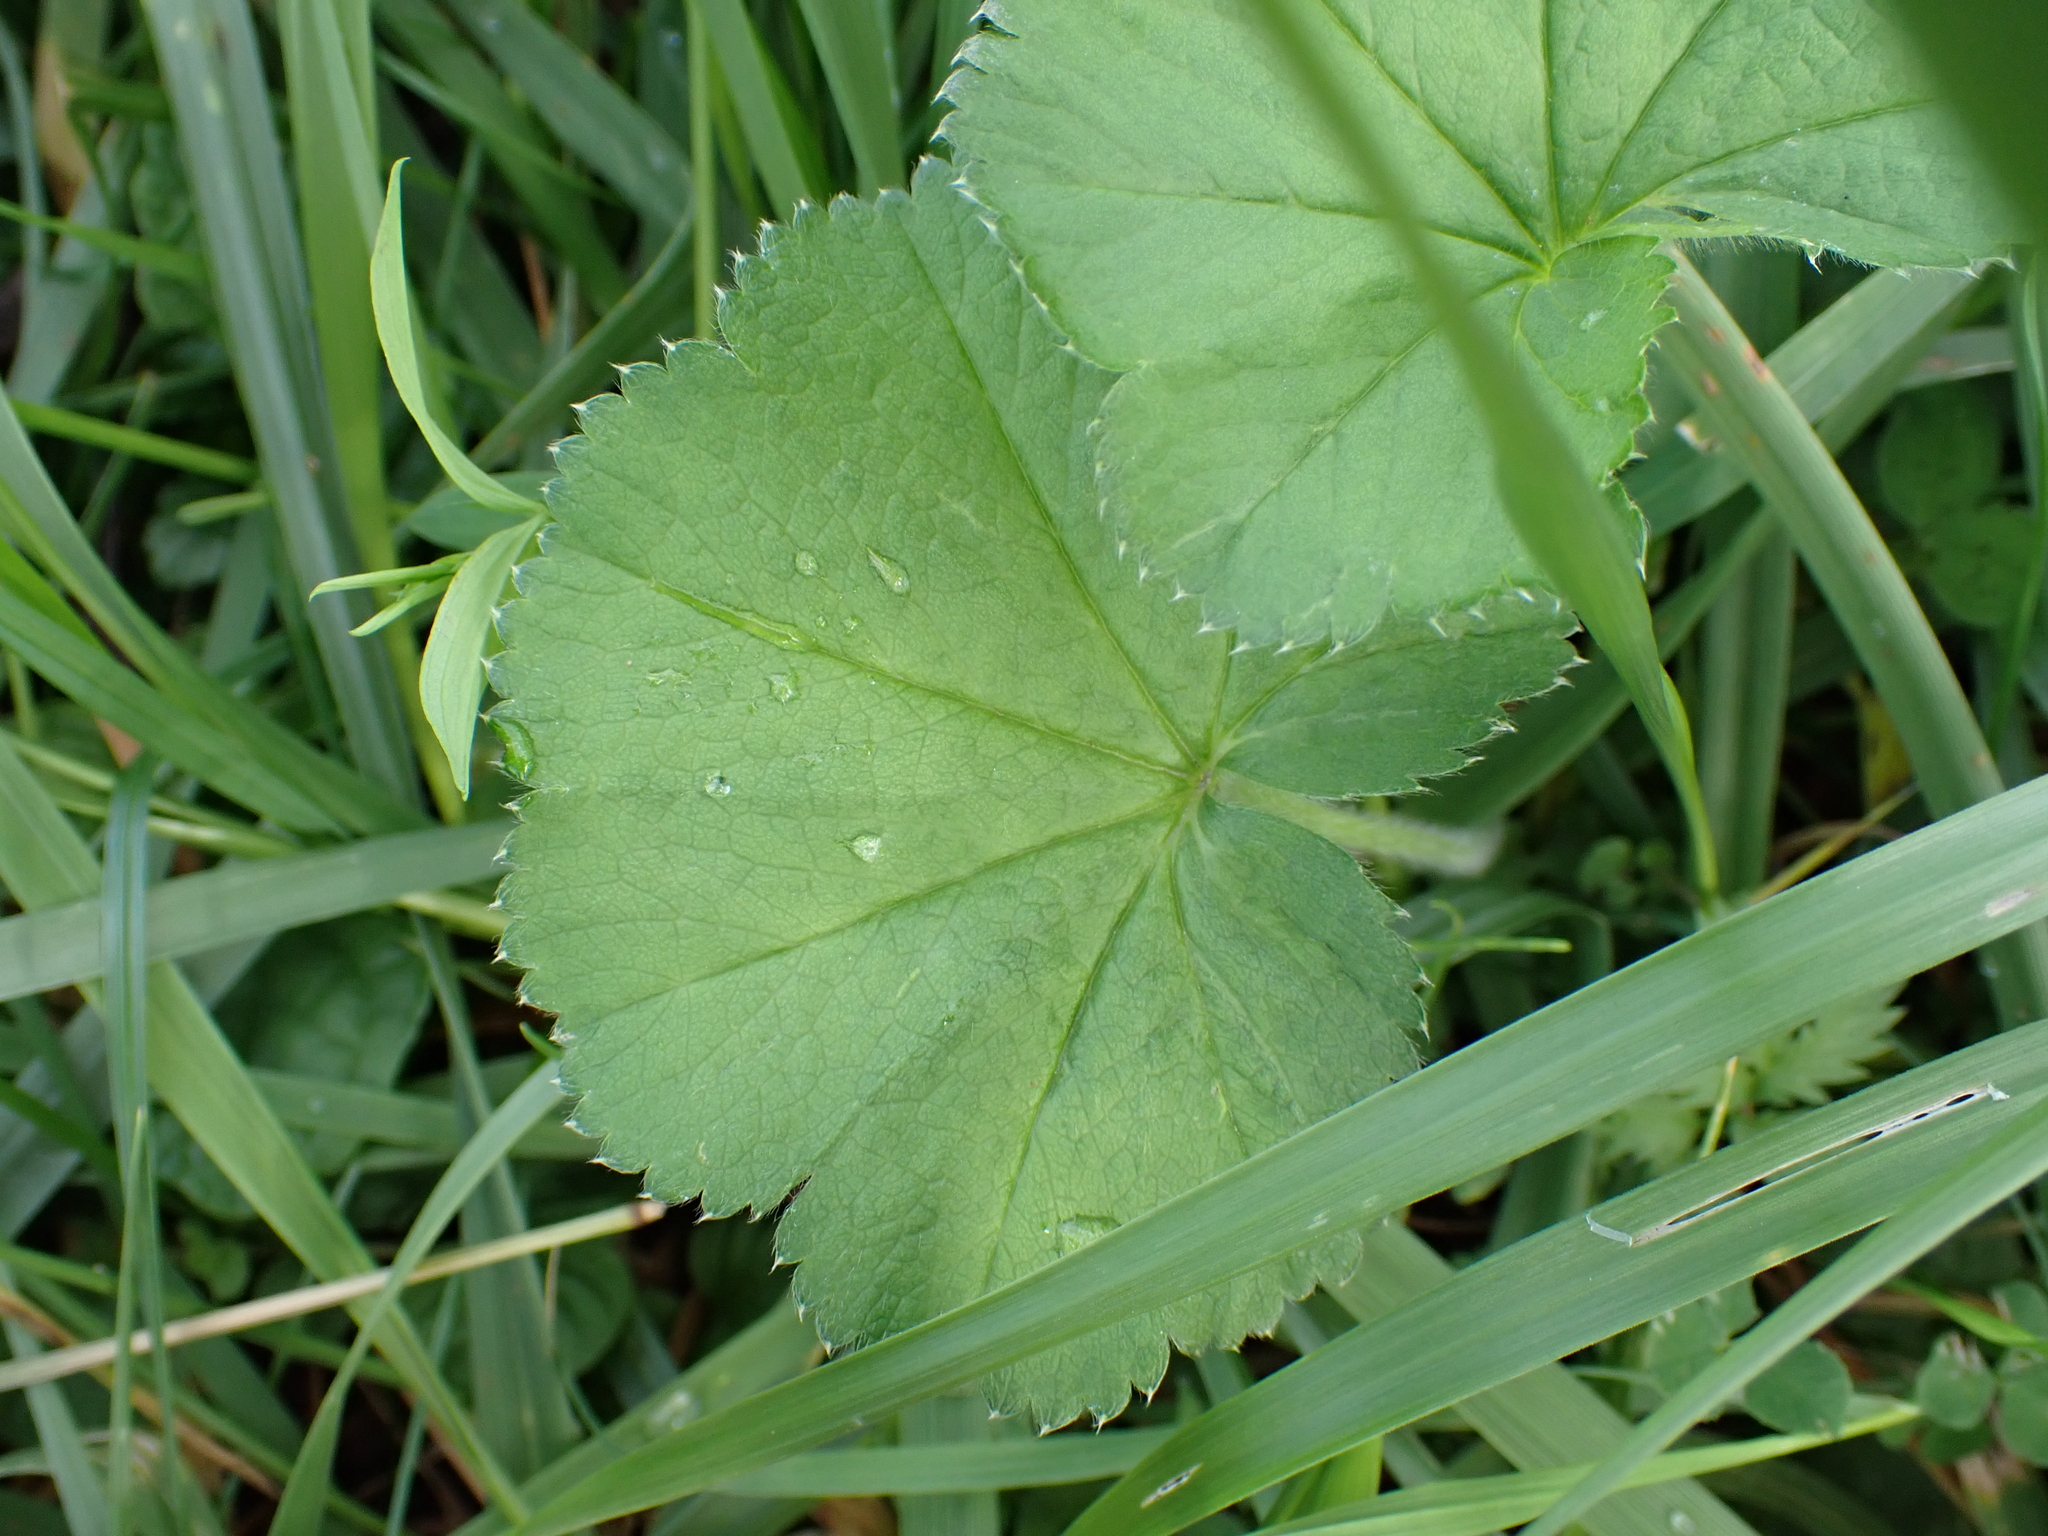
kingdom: Plantae
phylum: Tracheophyta
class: Magnoliopsida
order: Rosales
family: Rosaceae
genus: Alchemilla
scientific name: Alchemilla crinita
